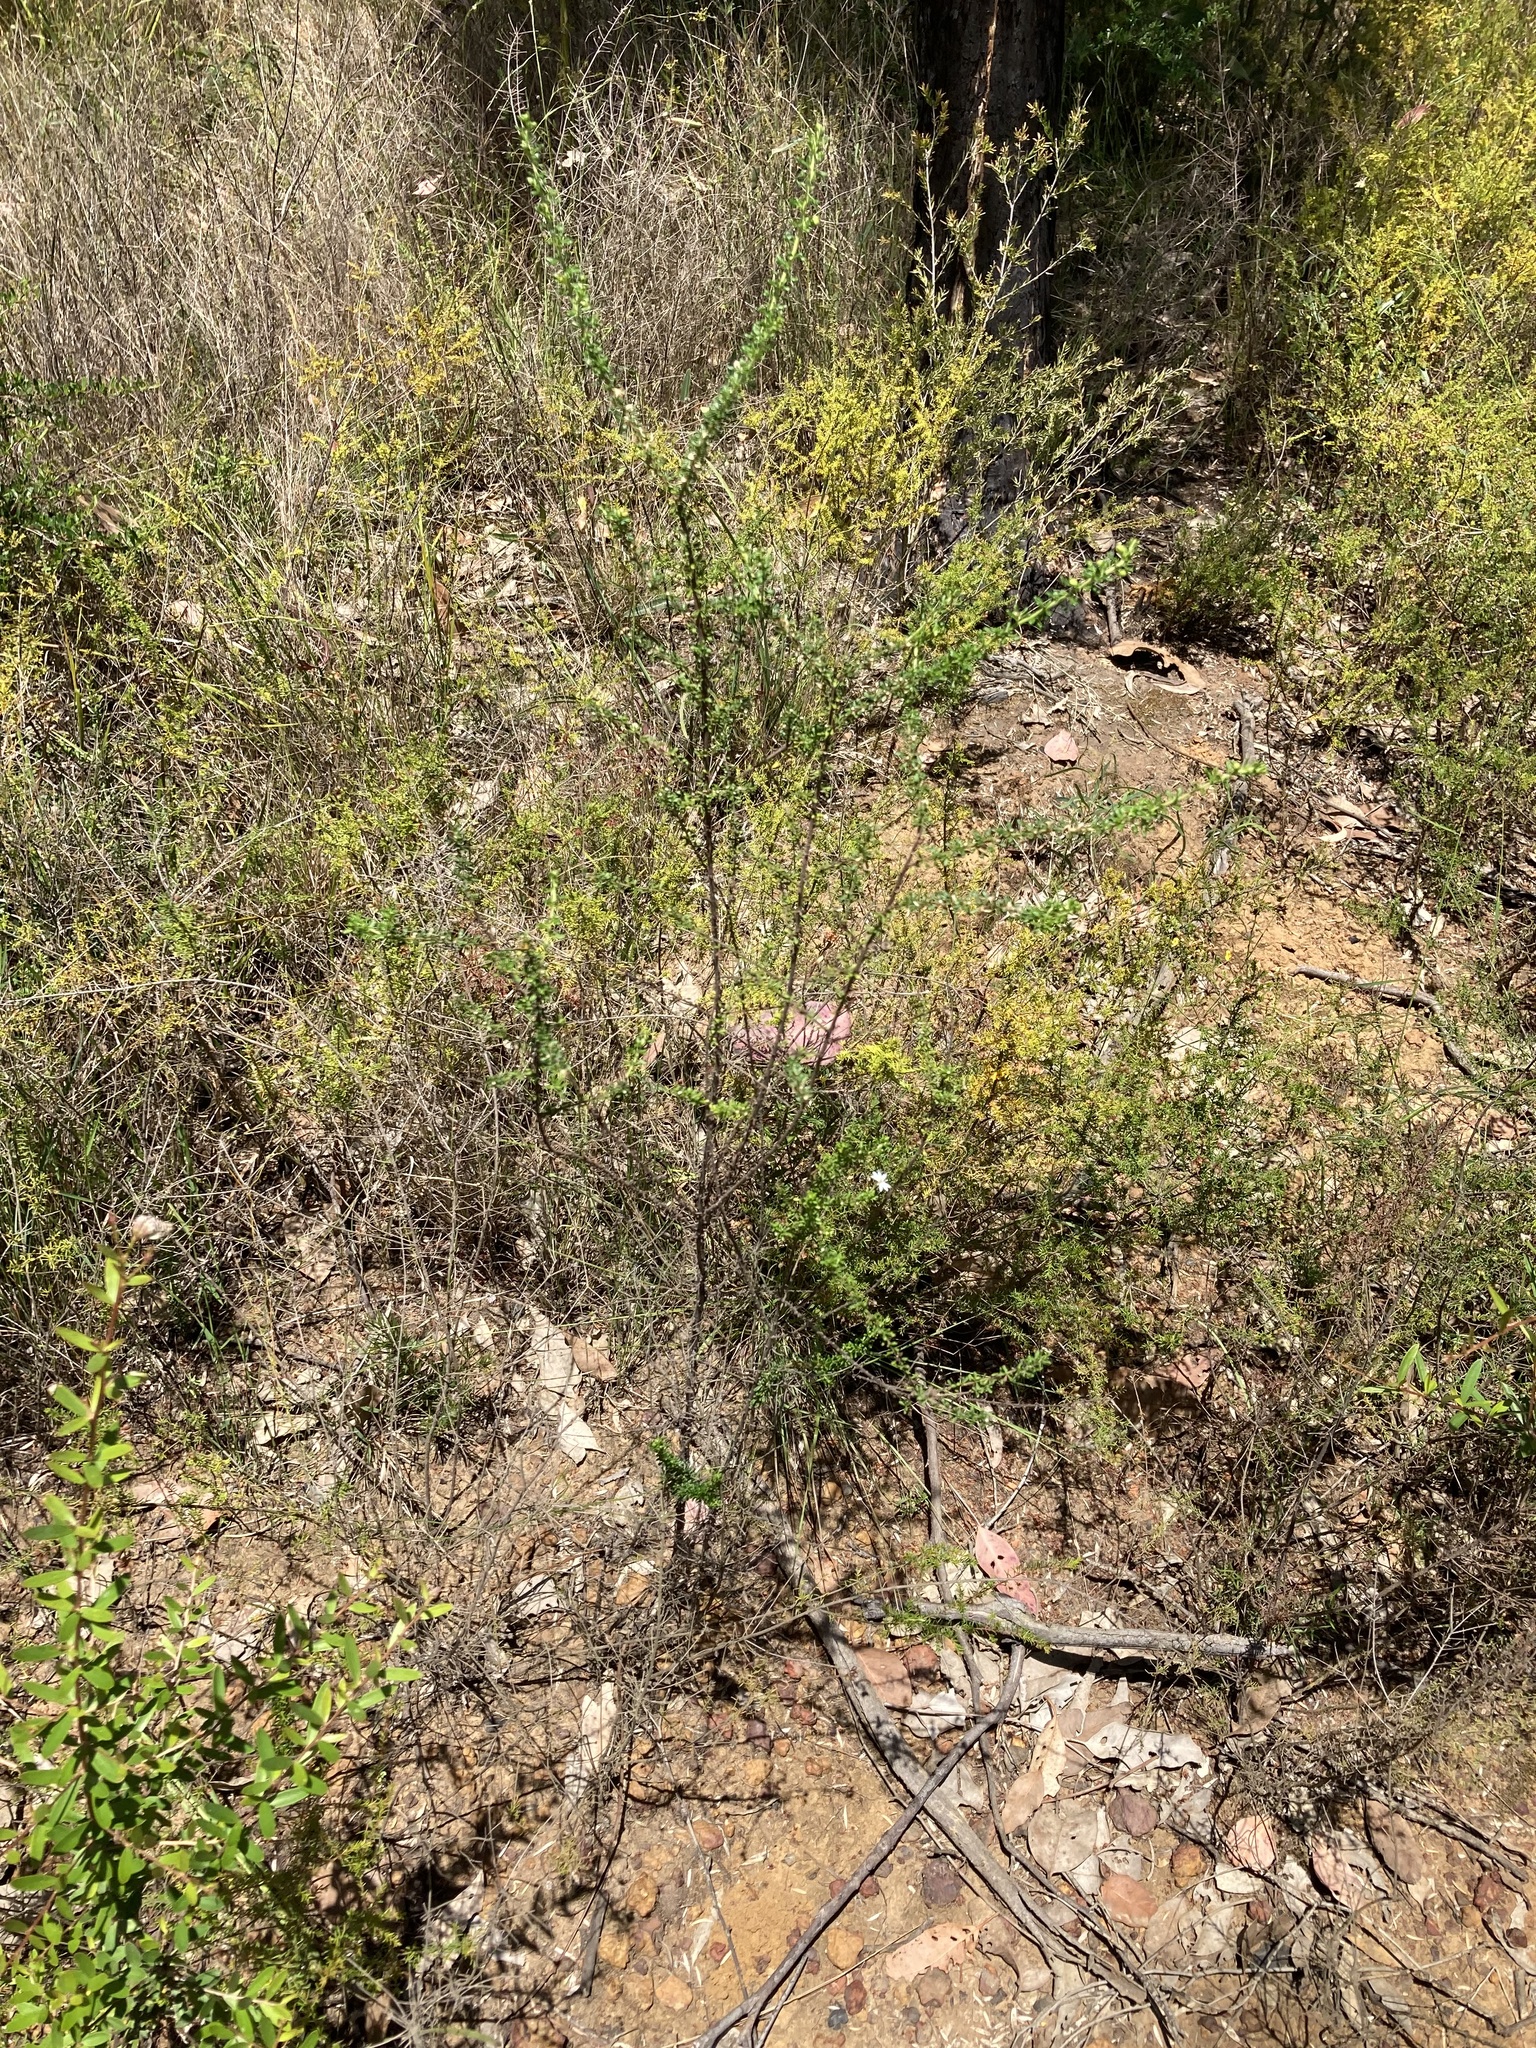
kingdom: Plantae
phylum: Tracheophyta
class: Magnoliopsida
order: Asterales
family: Asteraceae
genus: Olearia
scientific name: Olearia microphylla
